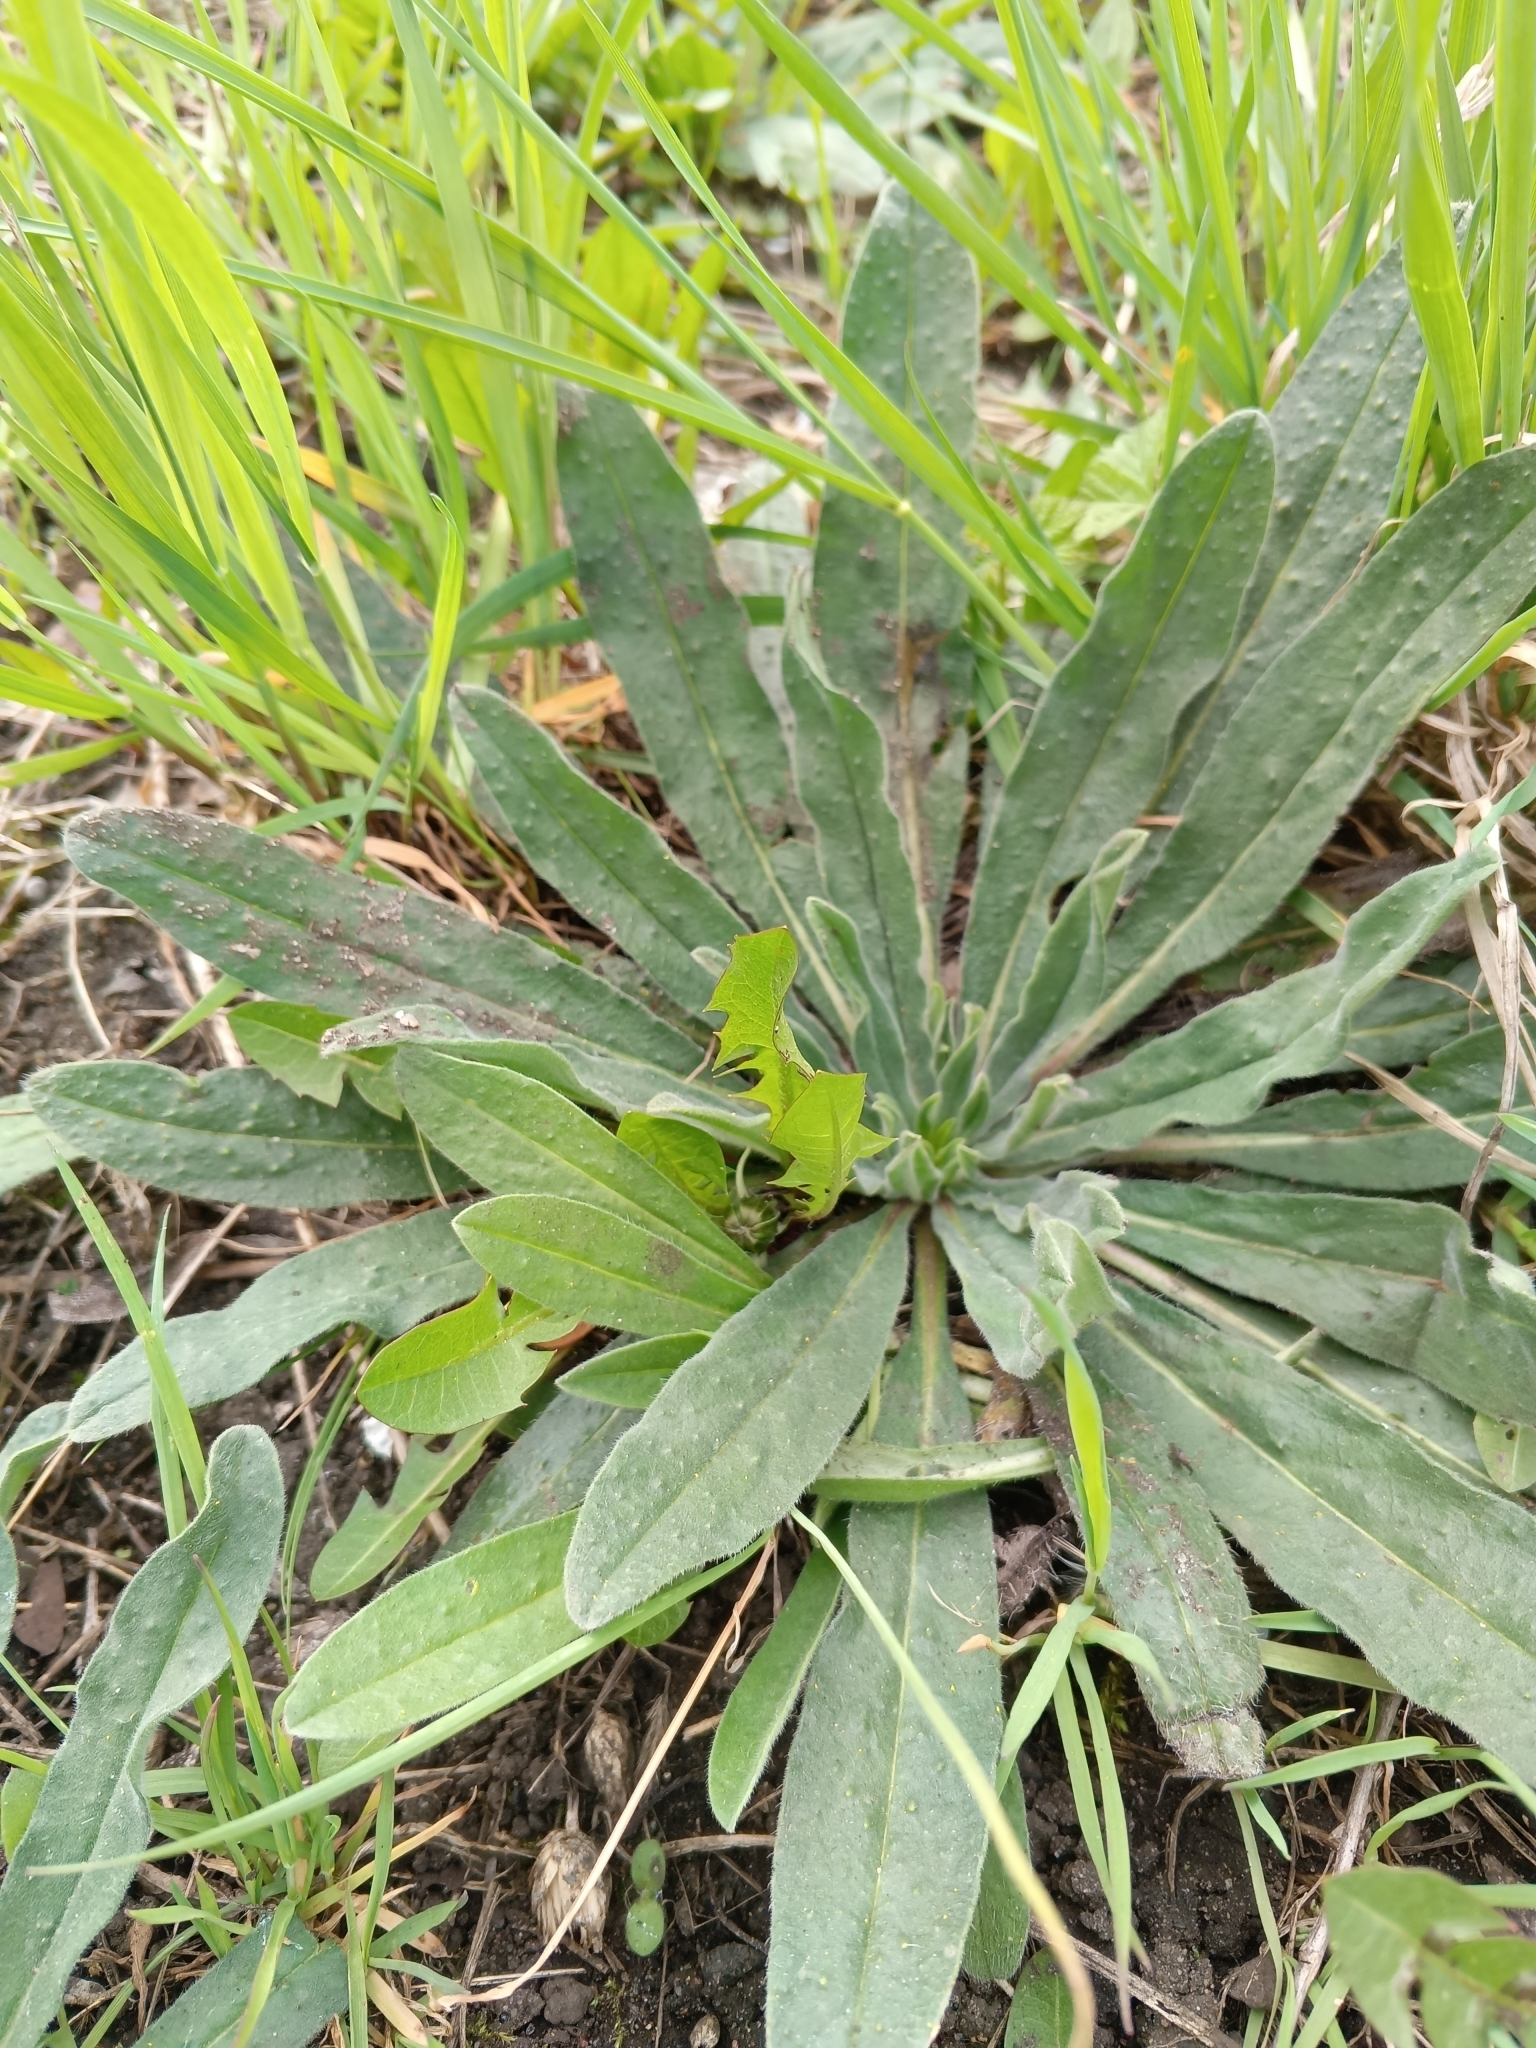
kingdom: Plantae
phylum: Tracheophyta
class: Magnoliopsida
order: Boraginales
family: Boraginaceae
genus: Echium
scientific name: Echium vulgare
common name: Common viper's bugloss
